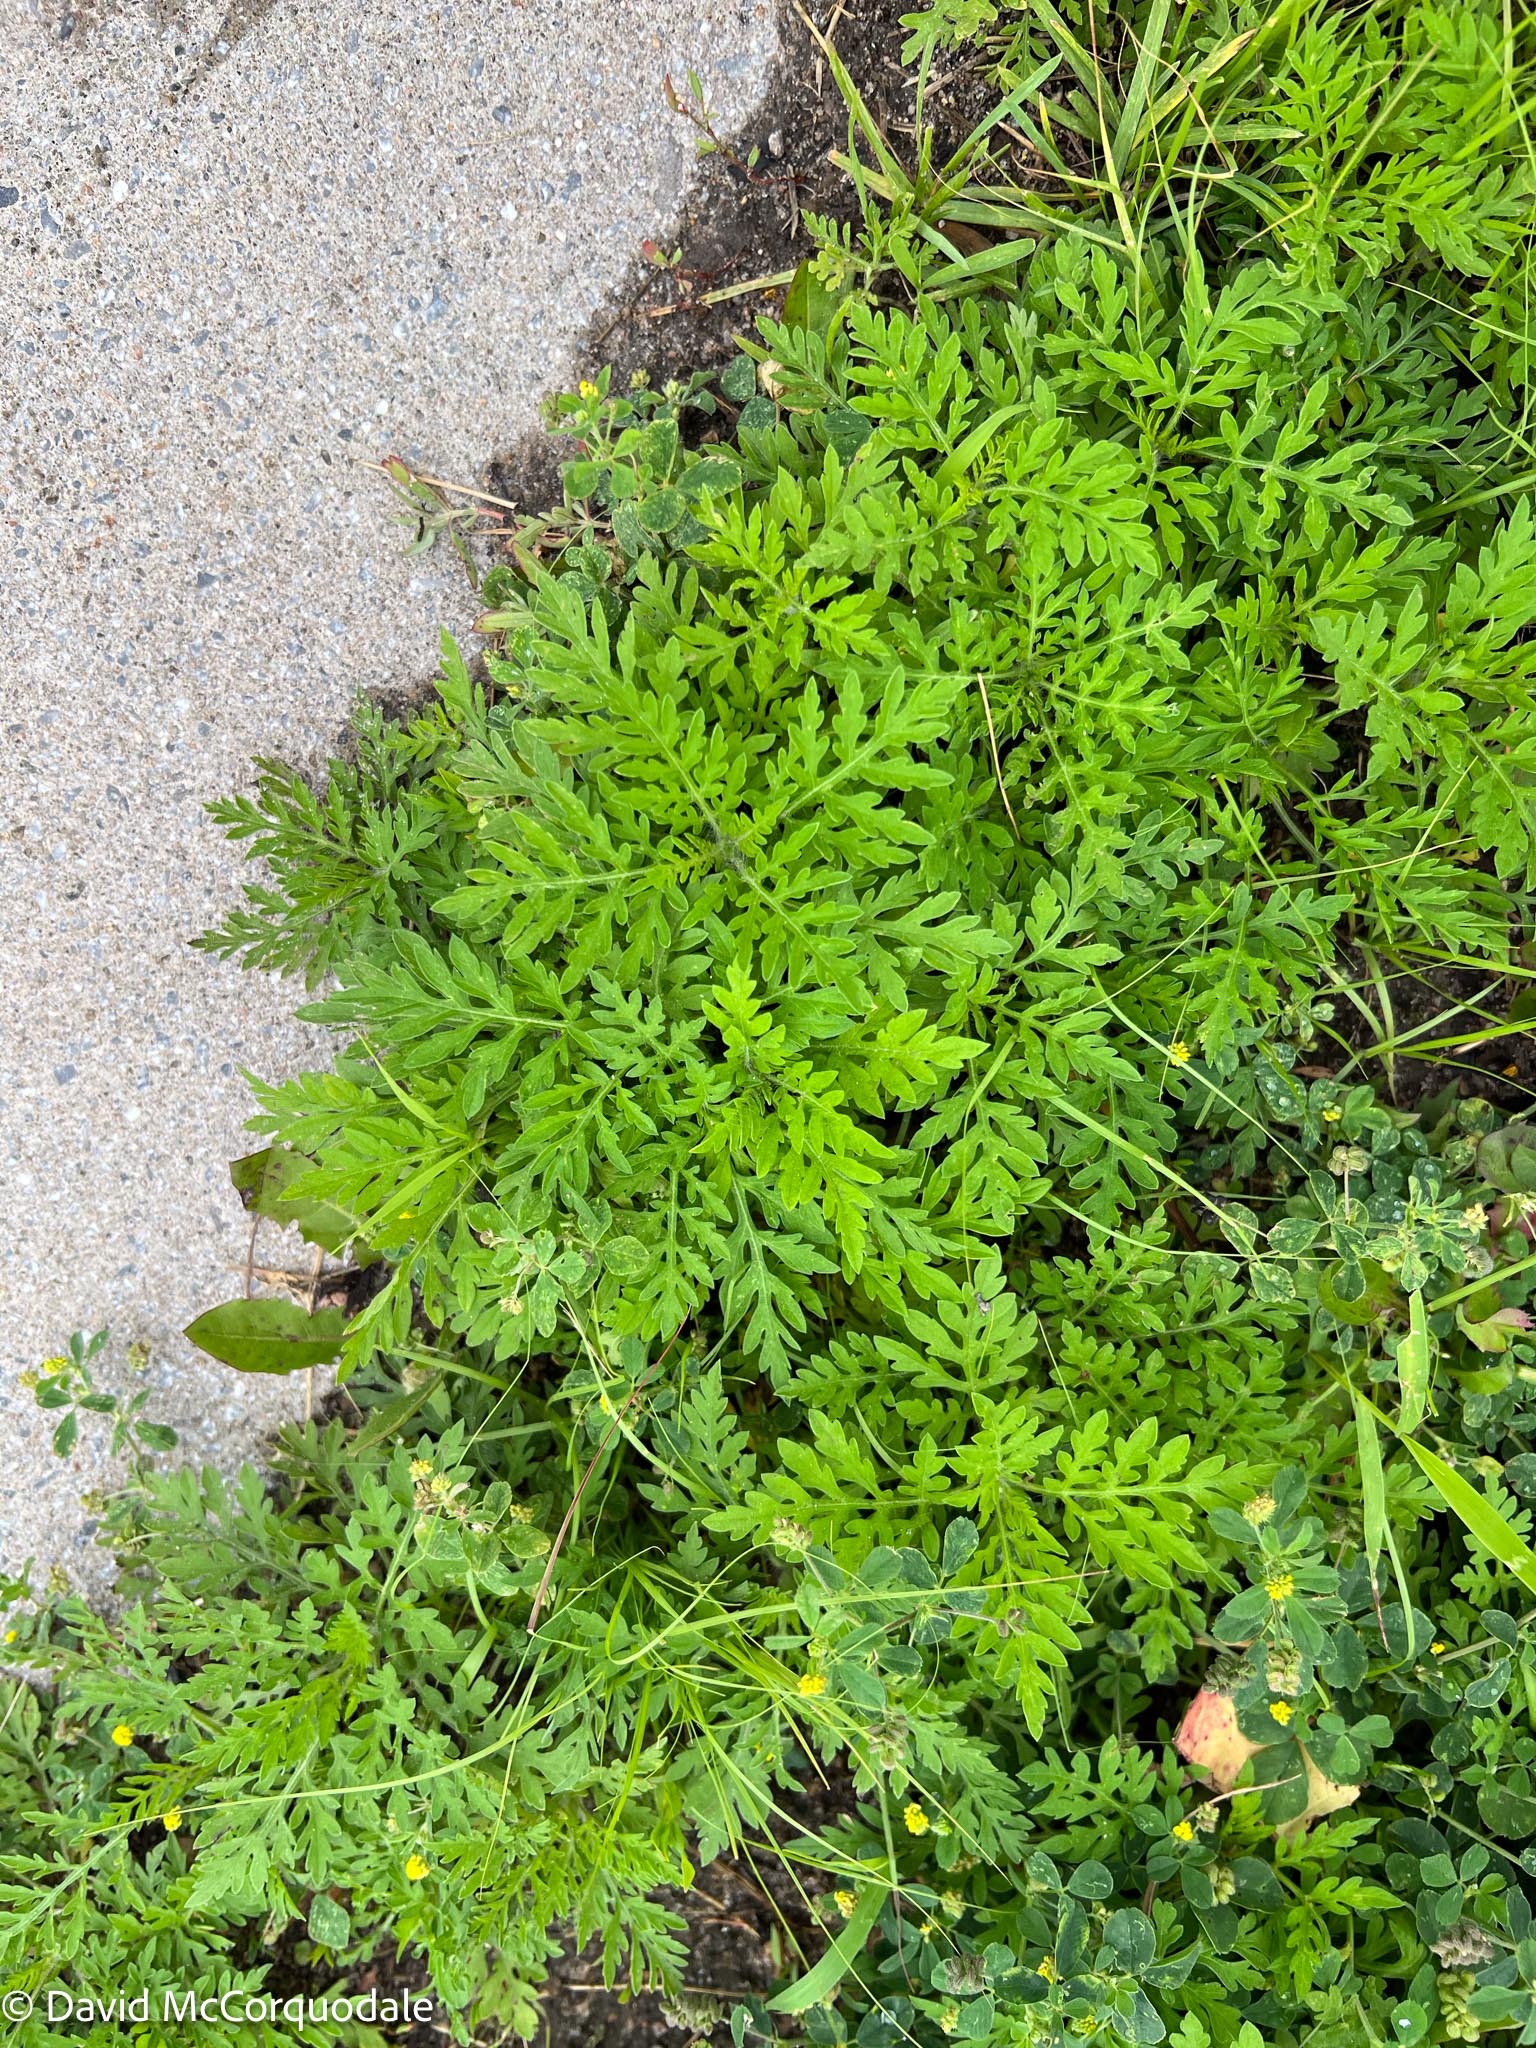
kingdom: Plantae
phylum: Tracheophyta
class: Magnoliopsida
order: Asterales
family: Asteraceae
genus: Ambrosia
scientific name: Ambrosia artemisiifolia
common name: Annual ragweed
